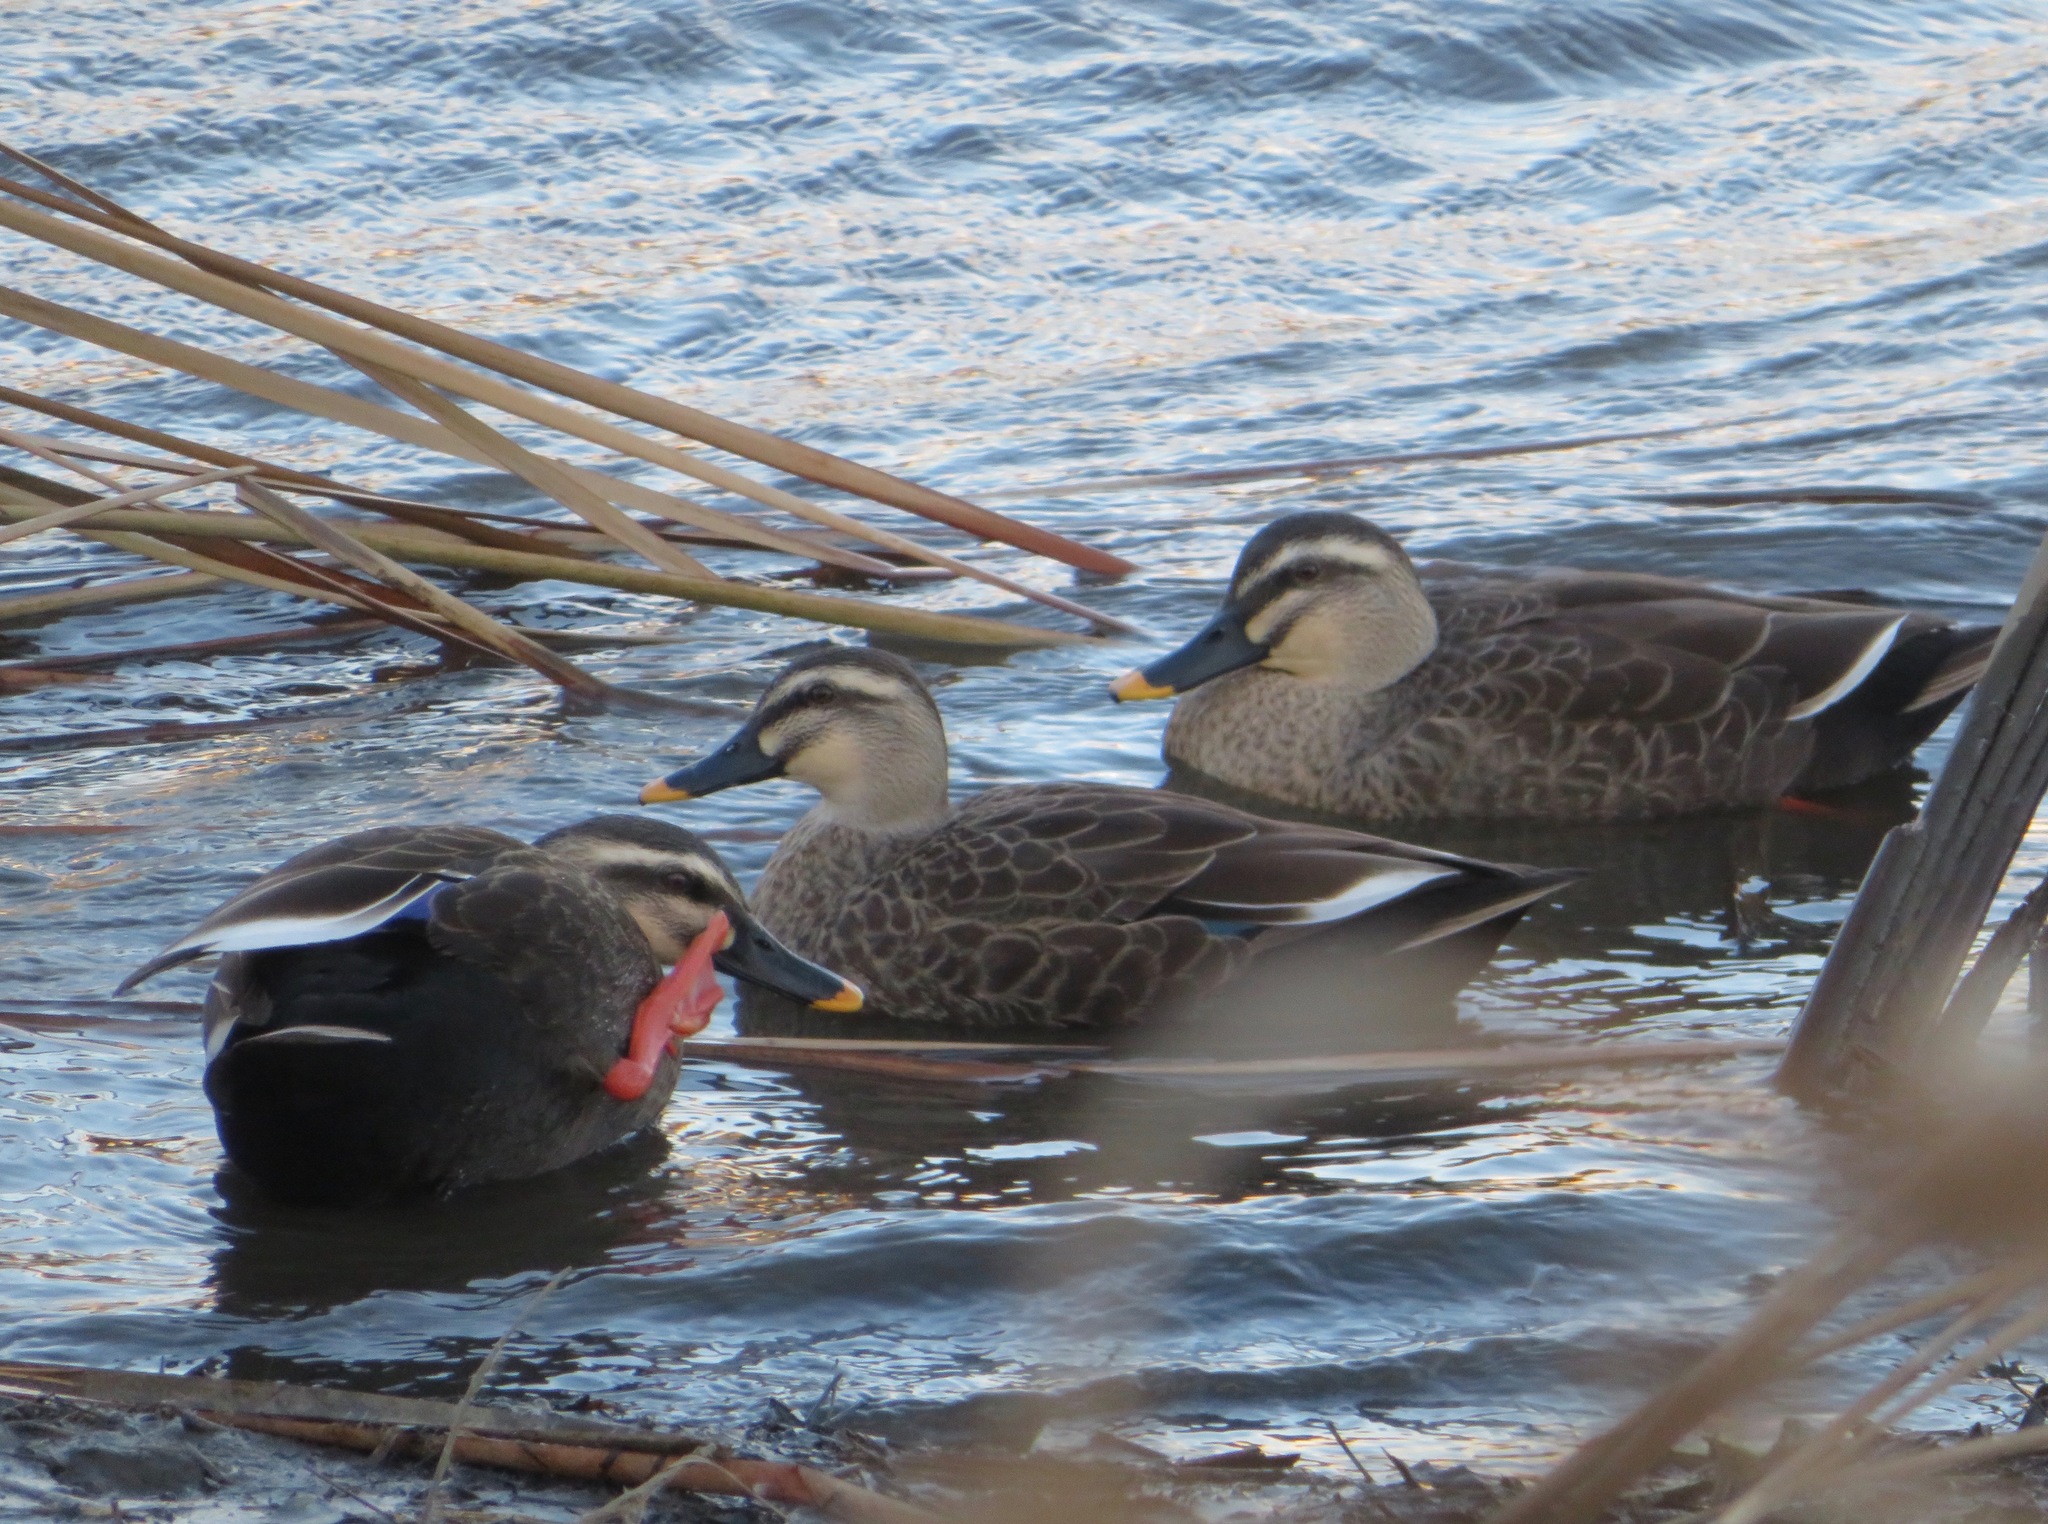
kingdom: Animalia
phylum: Chordata
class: Aves
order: Anseriformes
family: Anatidae
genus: Anas
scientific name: Anas zonorhyncha
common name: Eastern spot-billed duck
